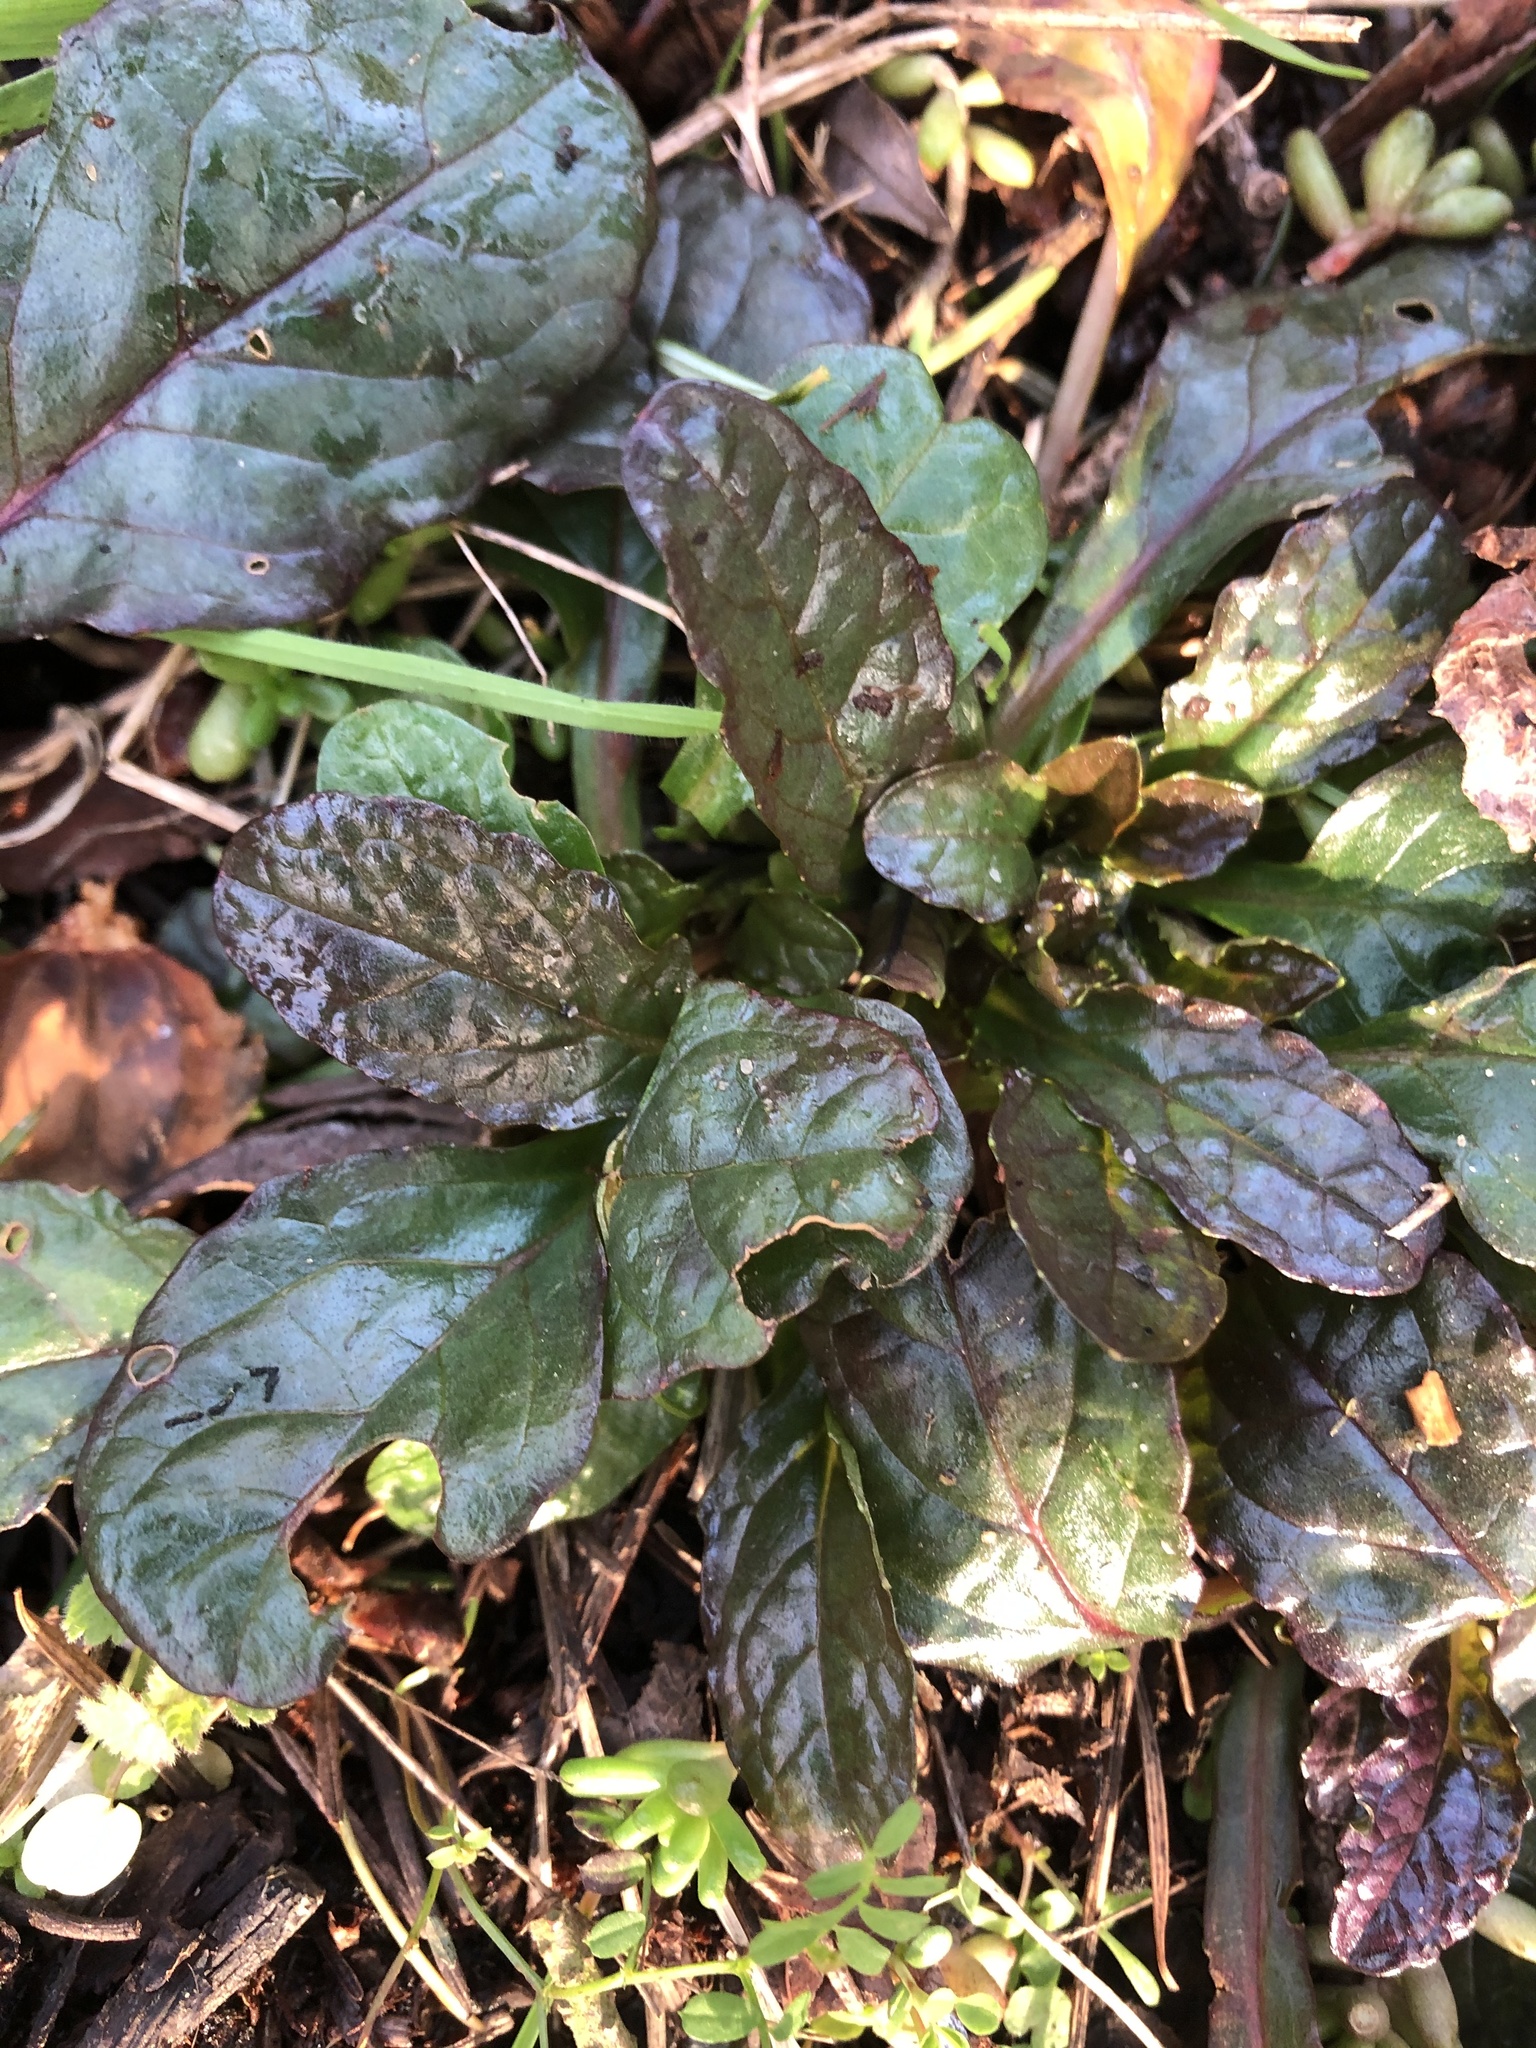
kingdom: Plantae
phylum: Tracheophyta
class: Magnoliopsida
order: Lamiales
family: Lamiaceae
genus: Ajuga
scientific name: Ajuga reptans
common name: Bugle
